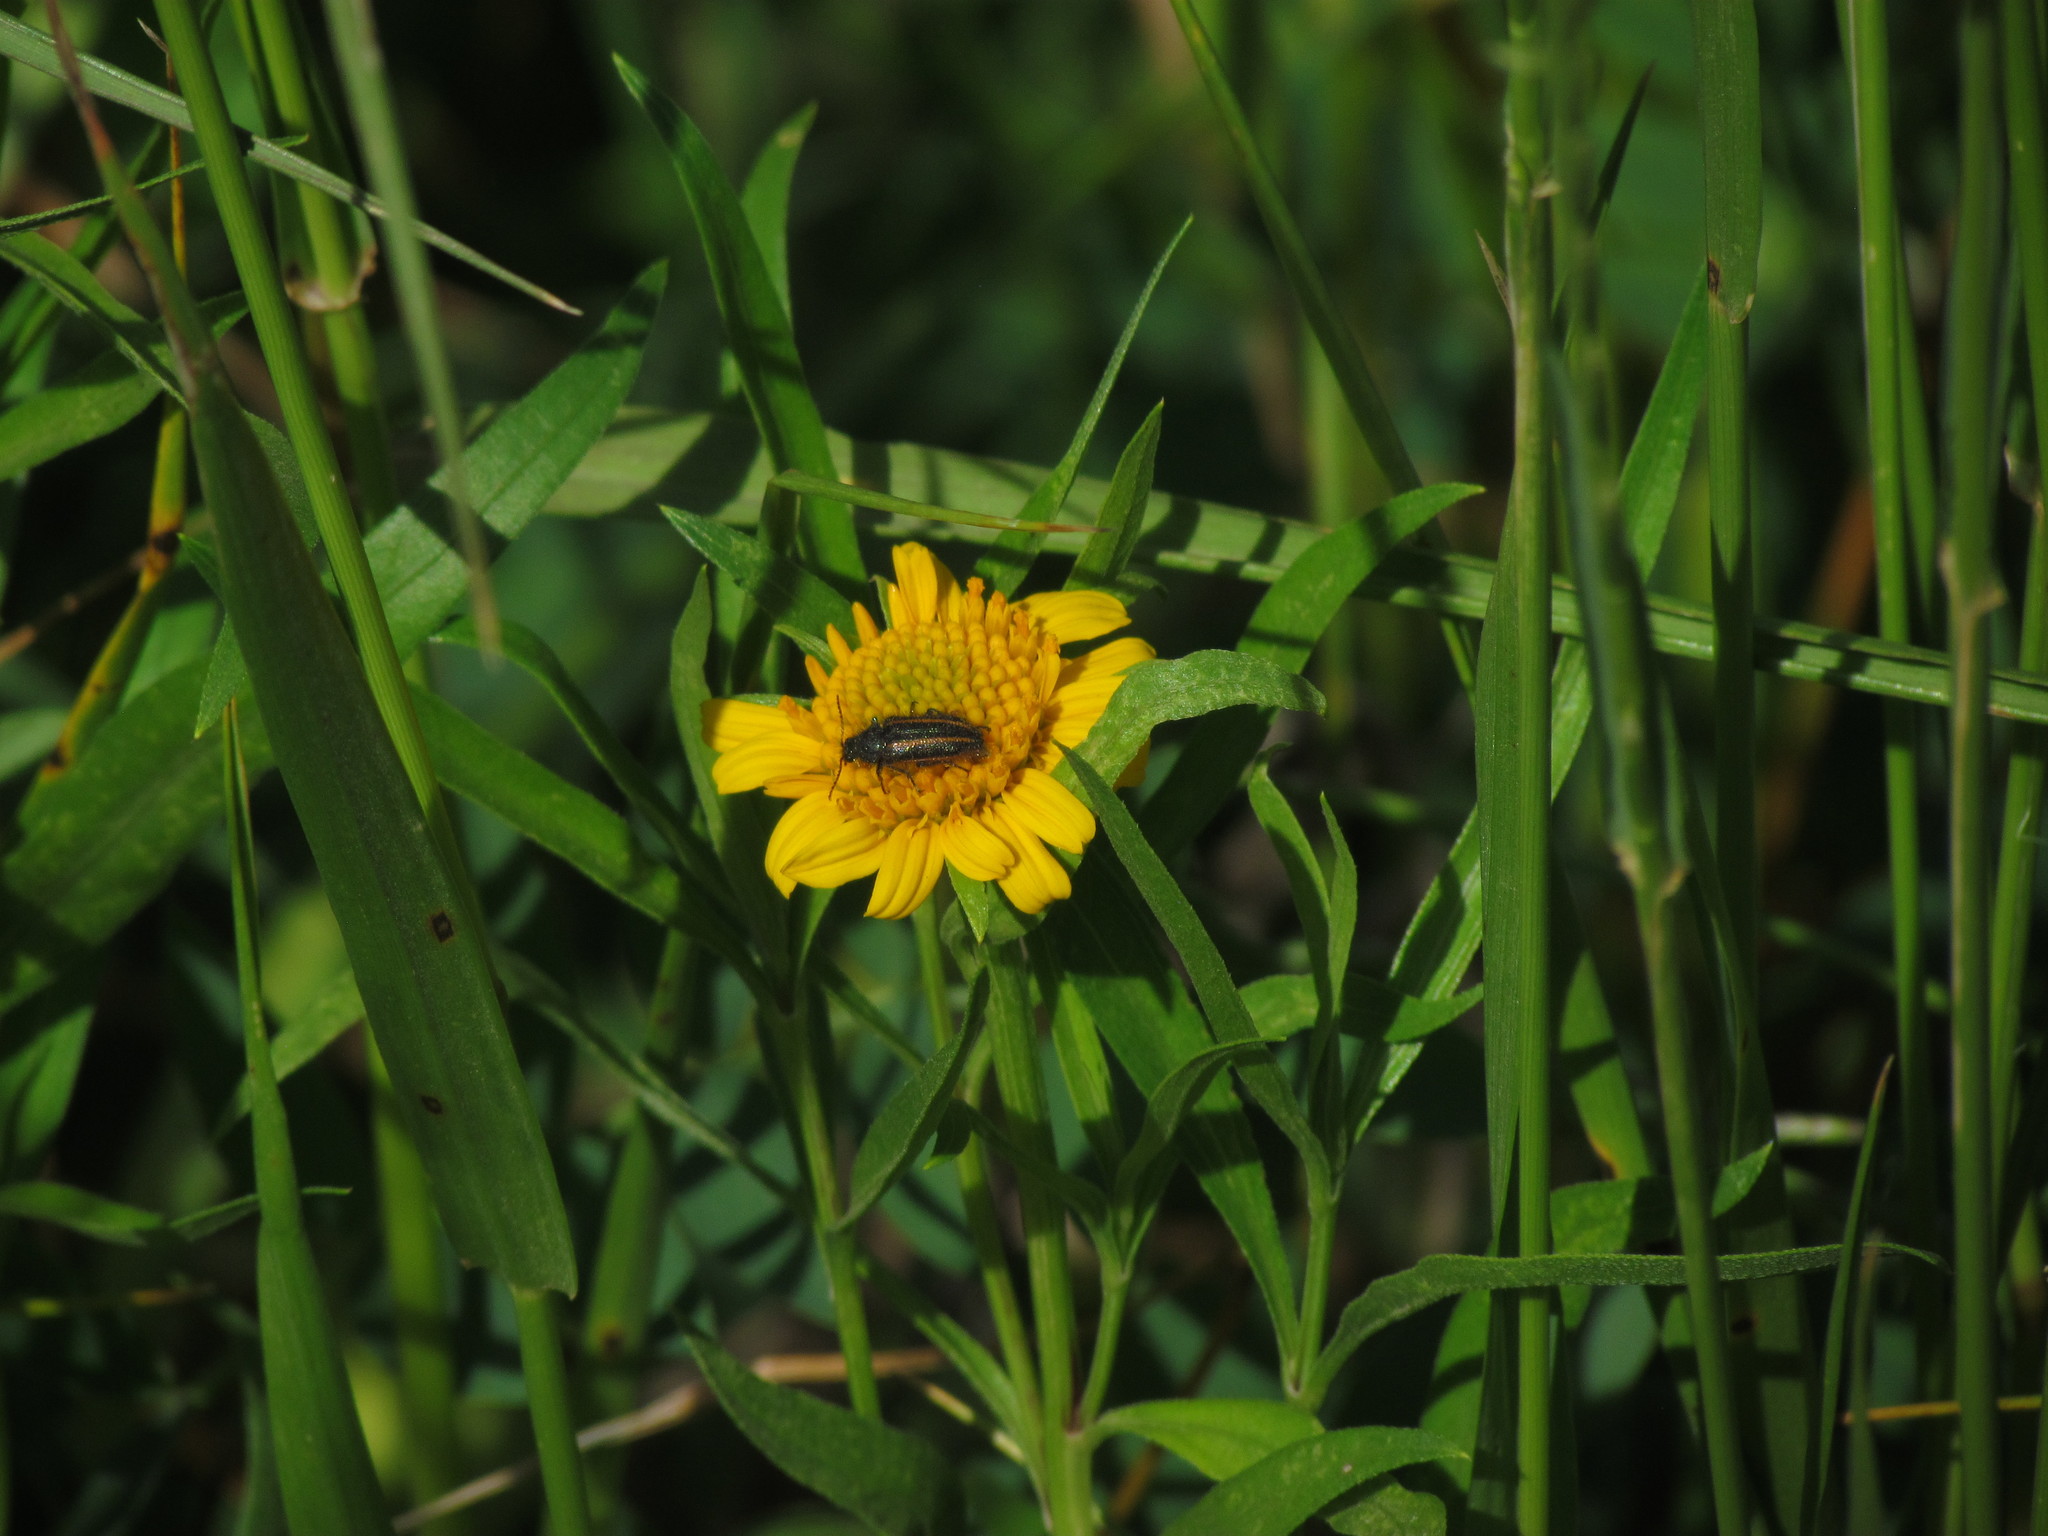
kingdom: Animalia
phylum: Arthropoda
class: Insecta
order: Coleoptera
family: Melyridae
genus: Astylus
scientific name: Astylus
